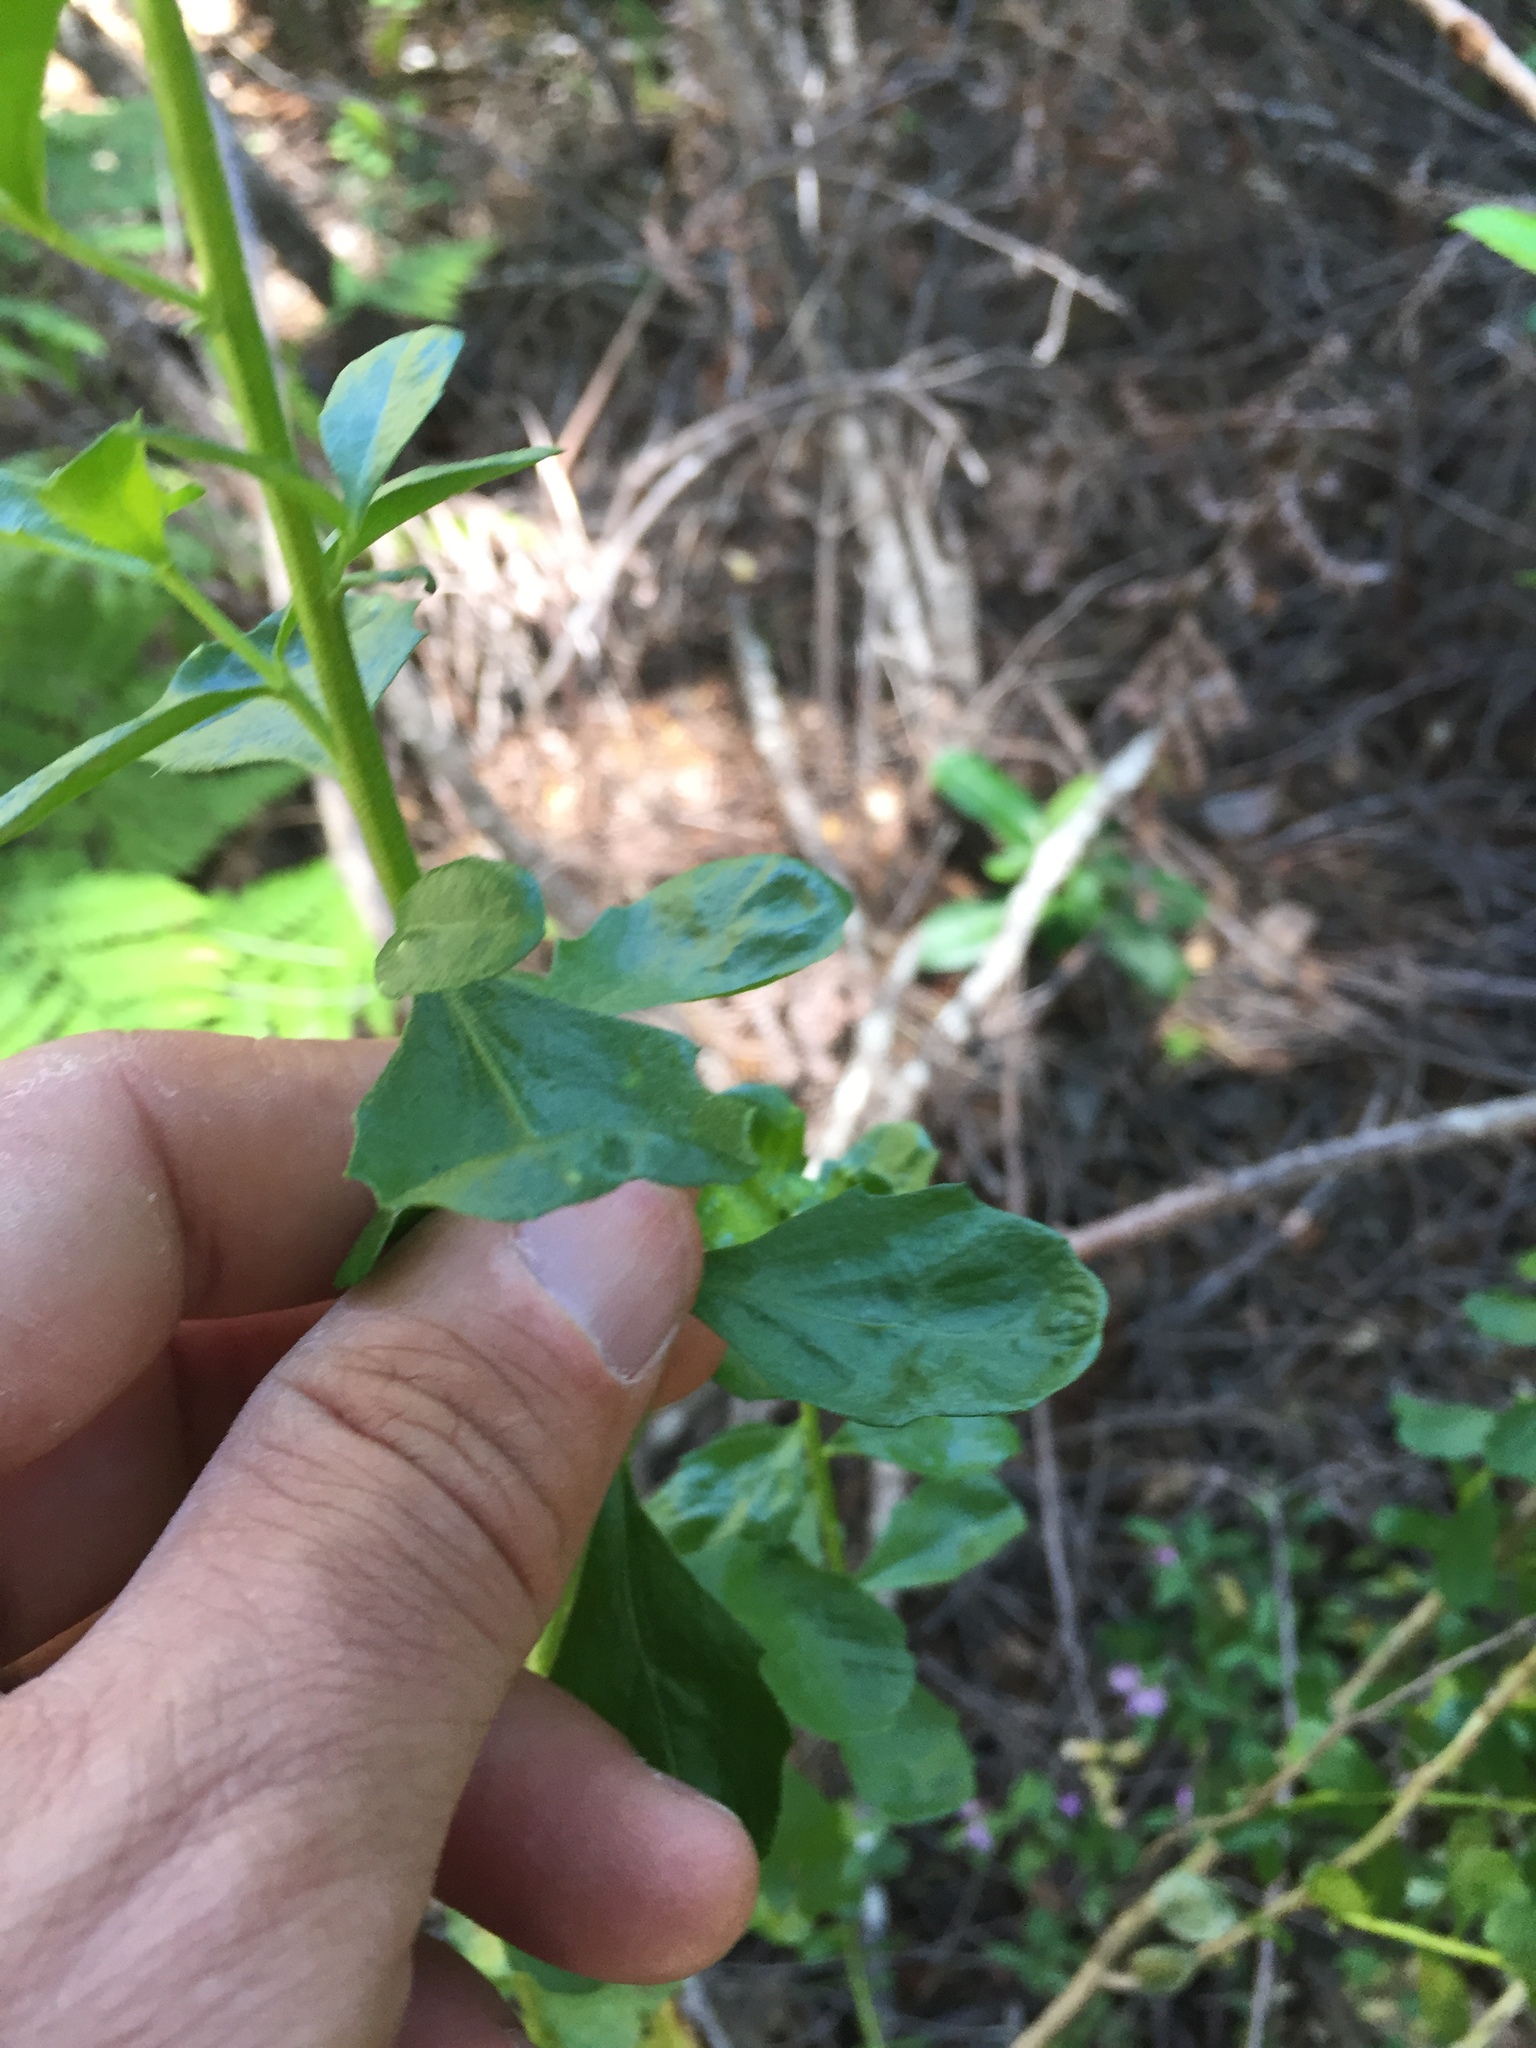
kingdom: Plantae
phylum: Tracheophyta
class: Magnoliopsida
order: Asterales
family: Asteraceae
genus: Baccharis
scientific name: Baccharis pilularis
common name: Coyotebrush
